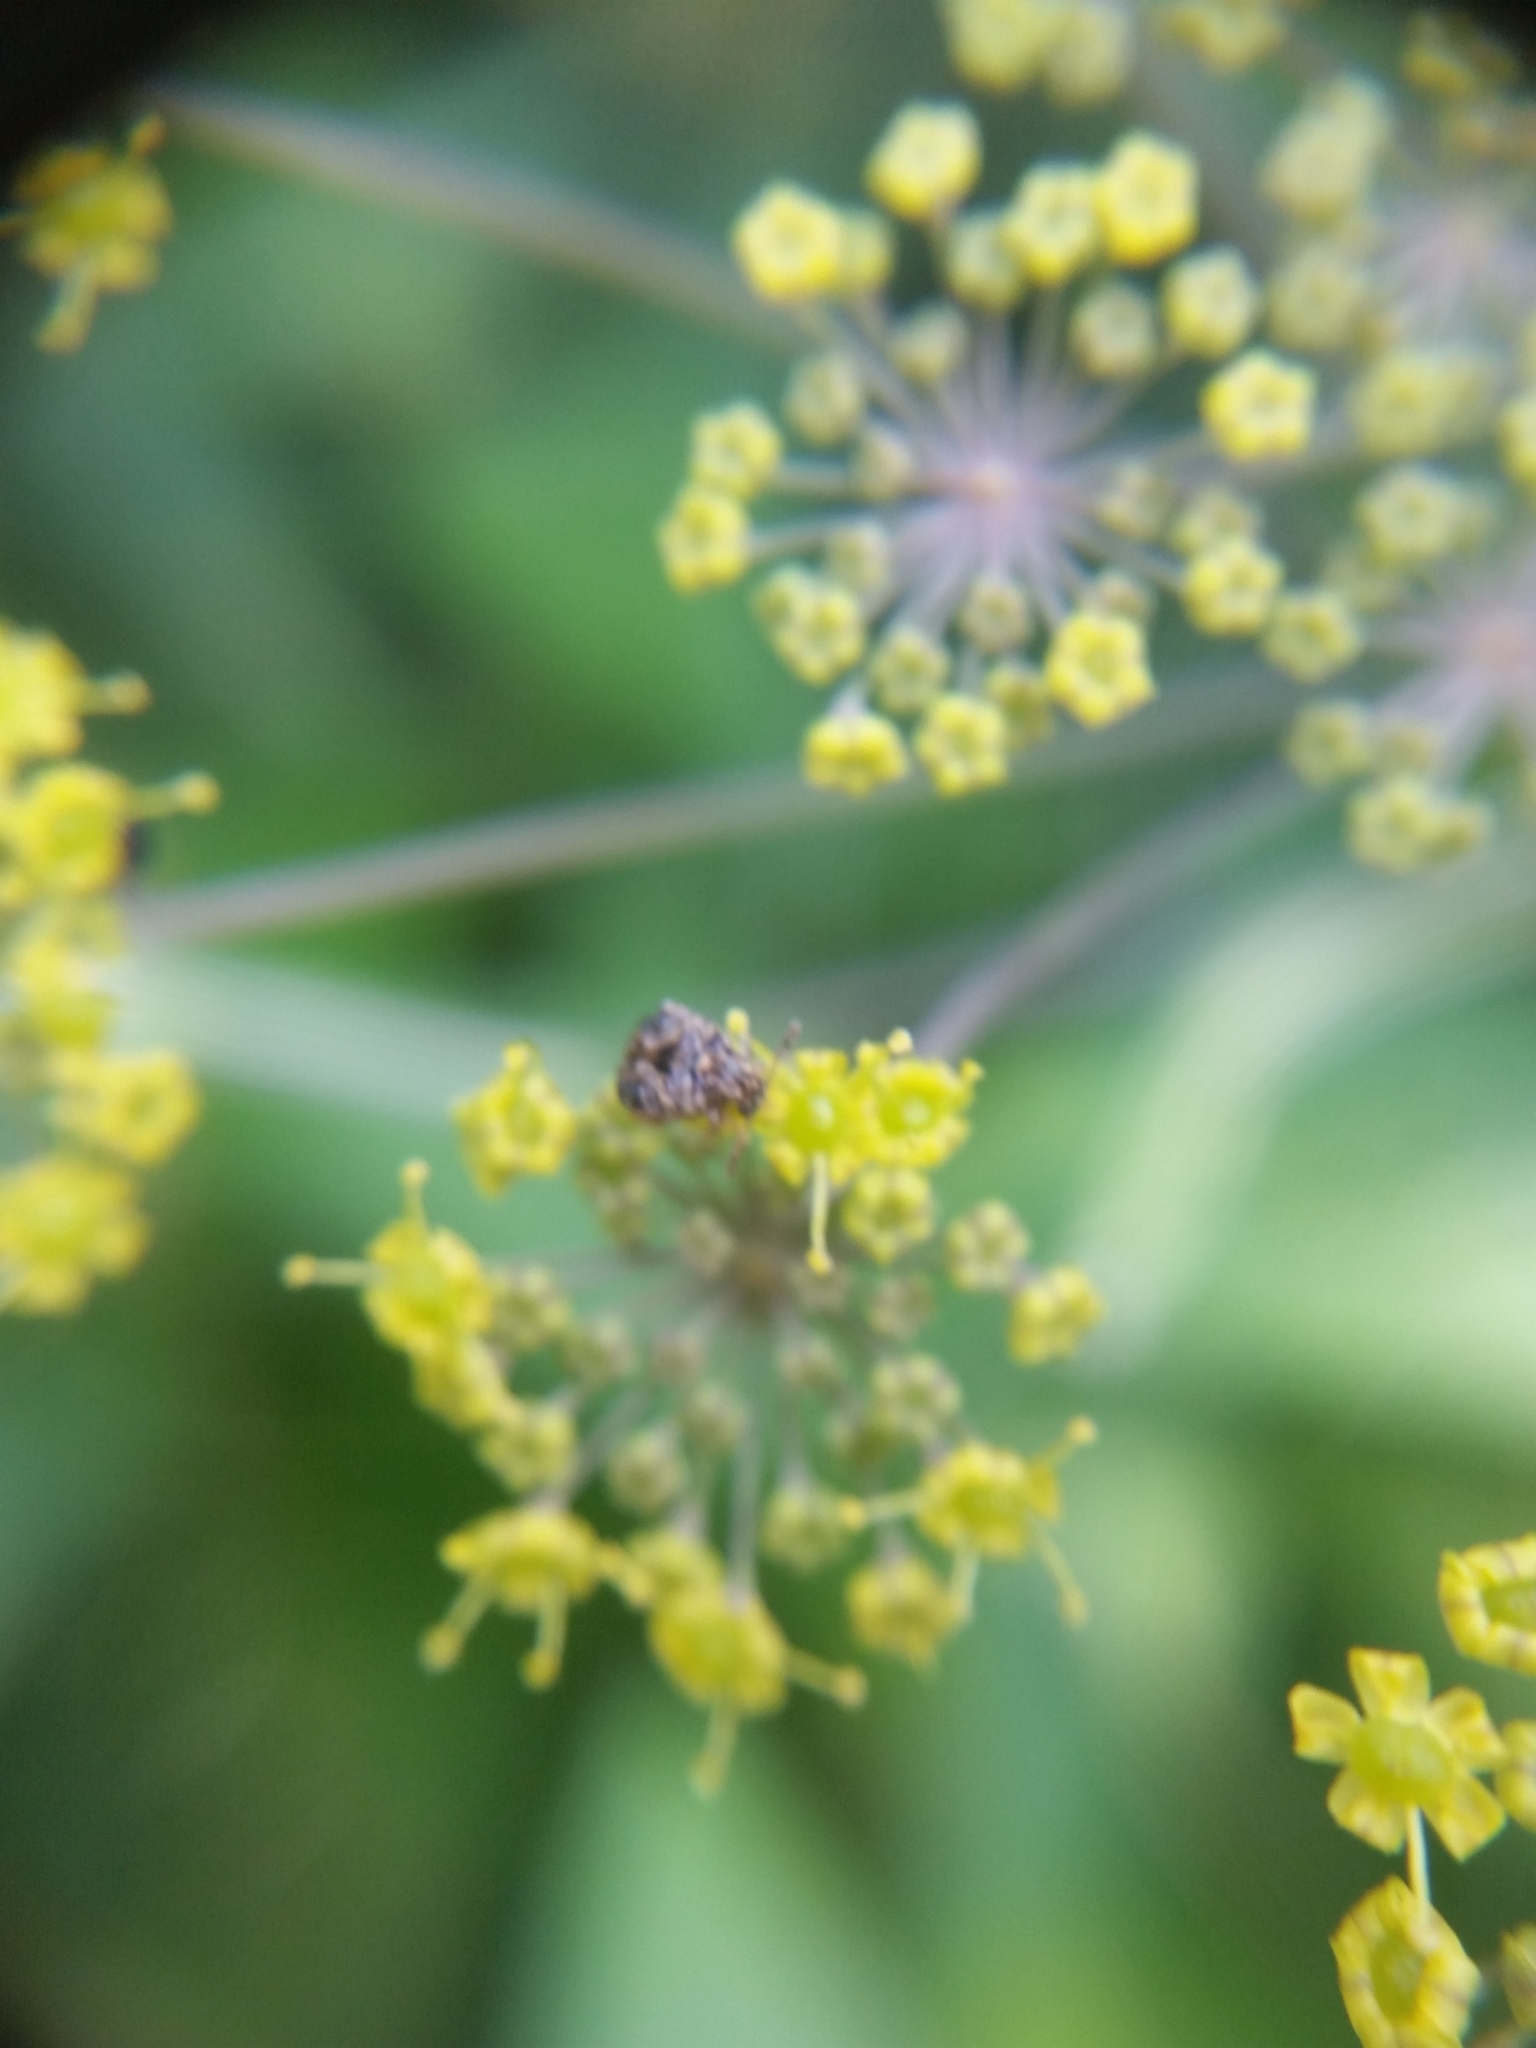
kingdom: Animalia
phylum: Arthropoda
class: Insecta
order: Coleoptera
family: Chrysomelidae
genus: Gibbobruchus
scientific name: Gibbobruchus mimus
